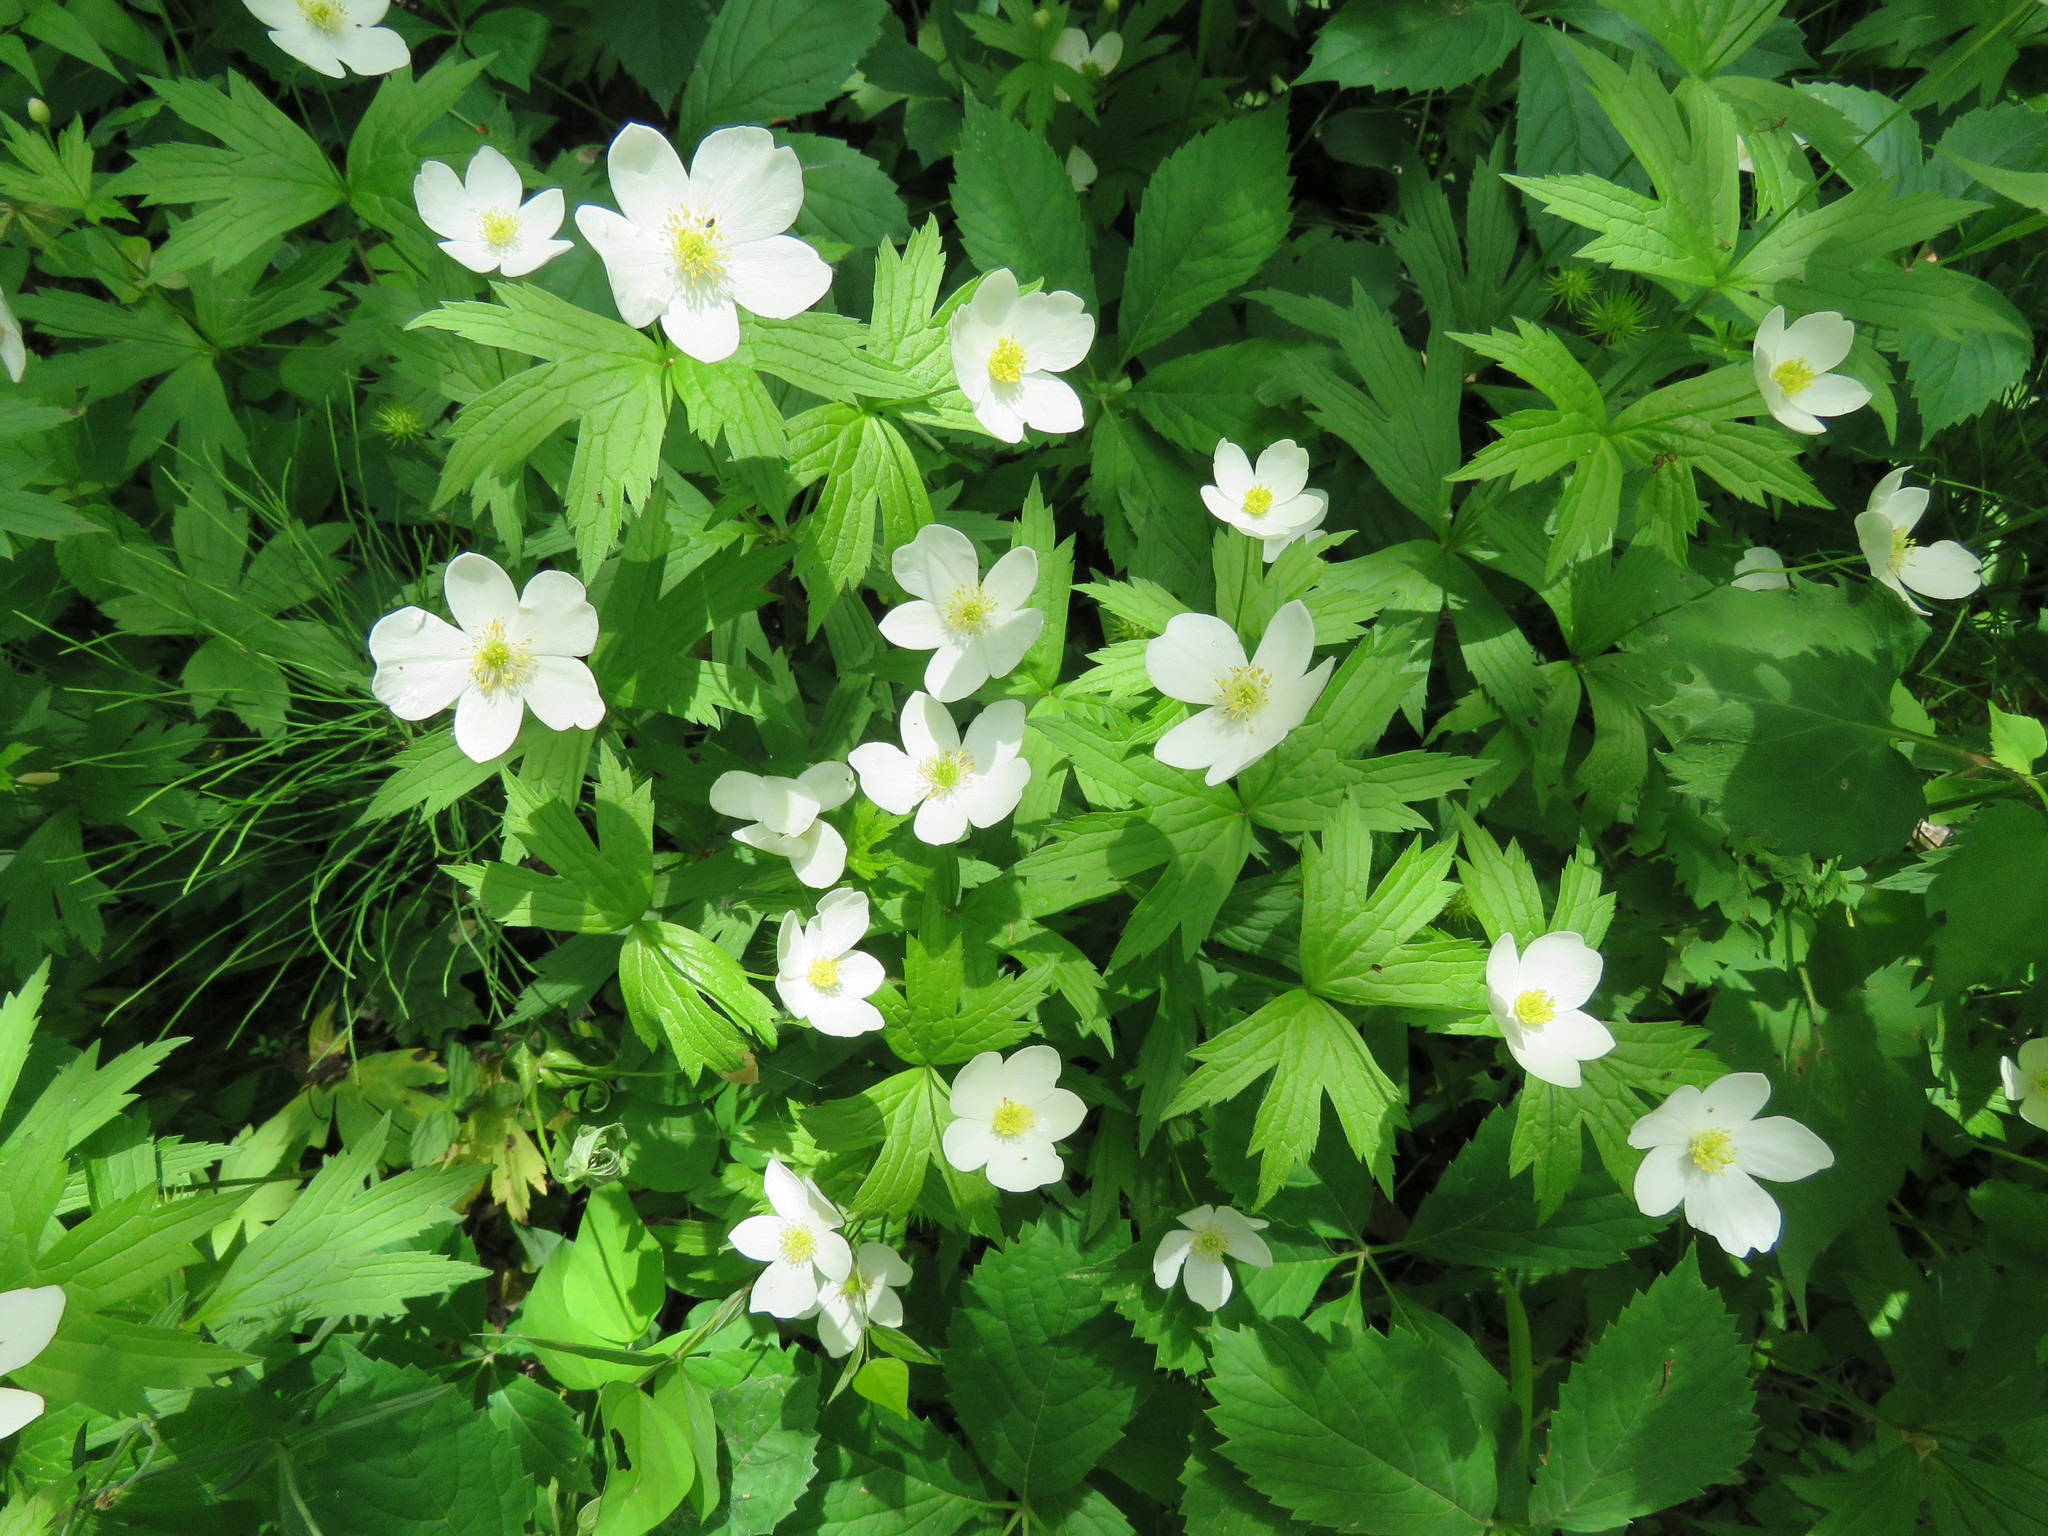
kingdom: Plantae
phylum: Tracheophyta
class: Magnoliopsida
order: Ranunculales
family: Ranunculaceae
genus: Anemonastrum
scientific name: Anemonastrum canadense
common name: Canada anemone
